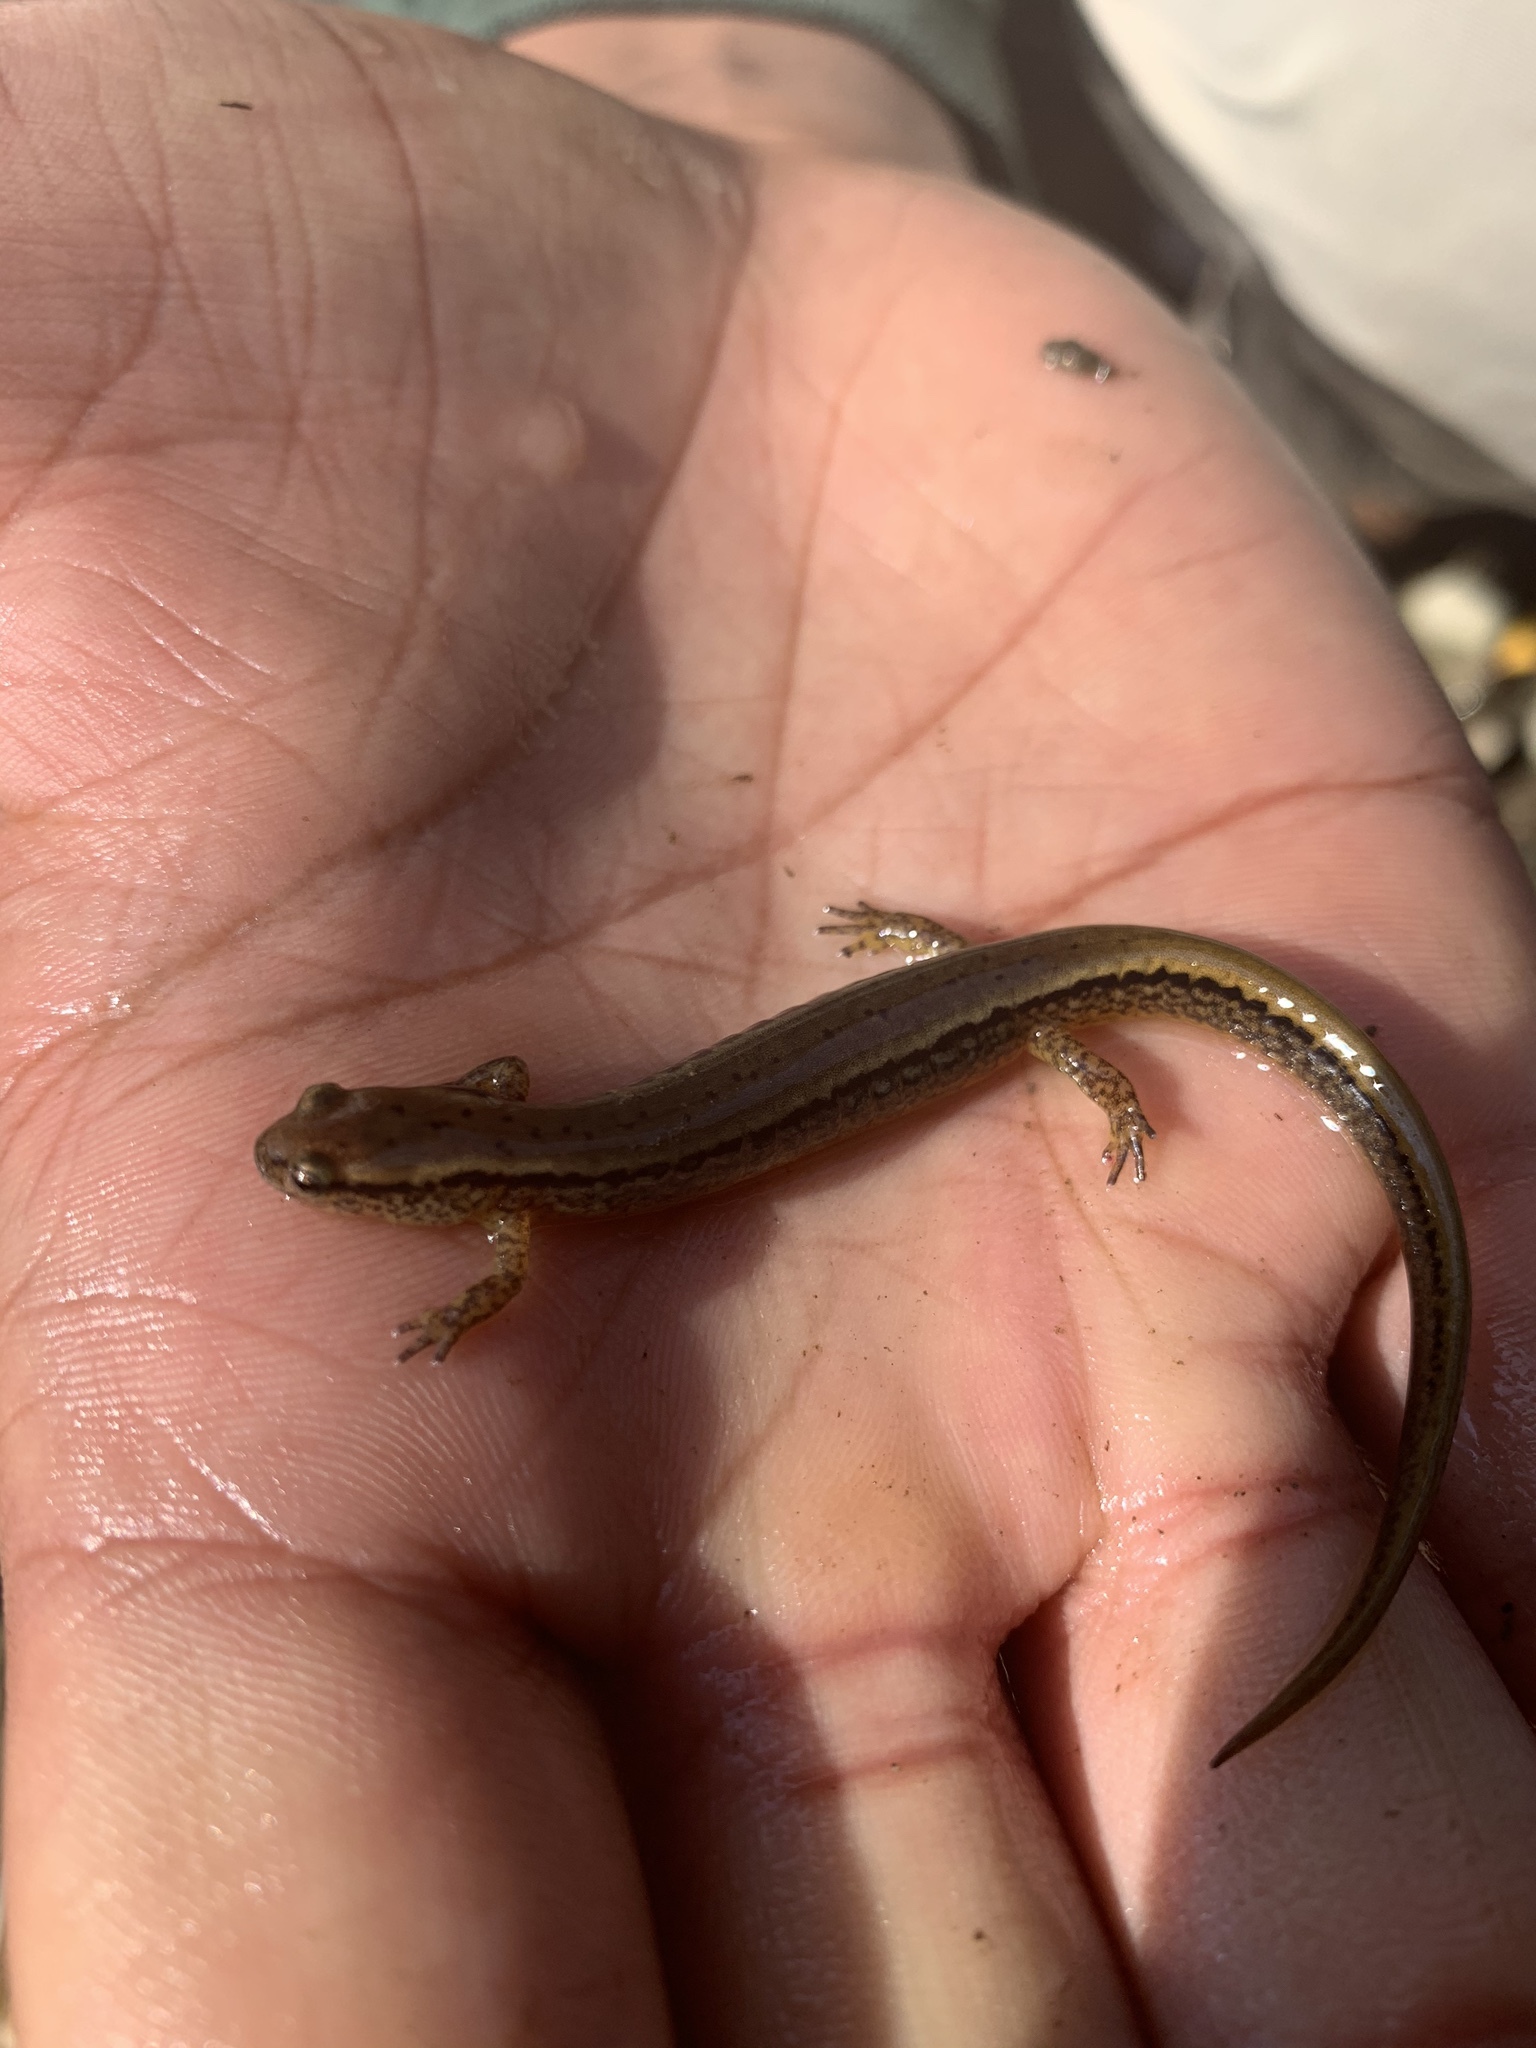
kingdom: Animalia
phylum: Chordata
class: Amphibia
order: Caudata
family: Plethodontidae
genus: Eurycea
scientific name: Eurycea bislineata
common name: Northern two-lined salamander
